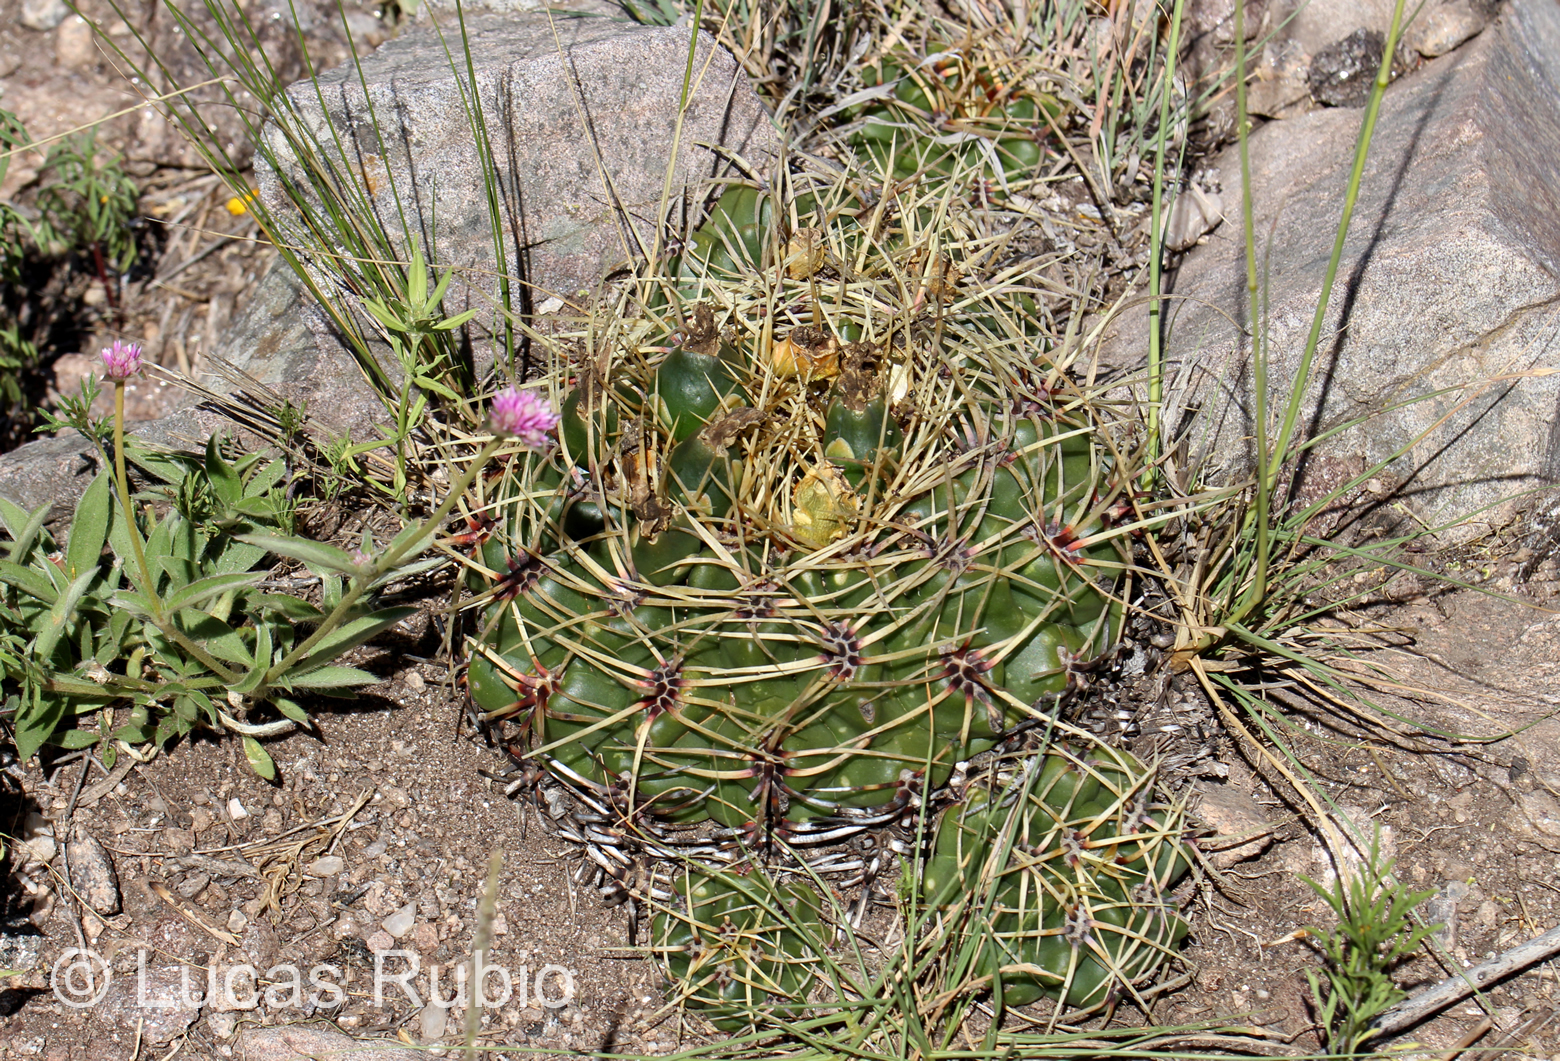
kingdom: Plantae
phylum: Tracheophyta
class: Magnoliopsida
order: Caryophyllales
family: Cactaceae
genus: Gymnocalycium
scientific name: Gymnocalycium monvillei
